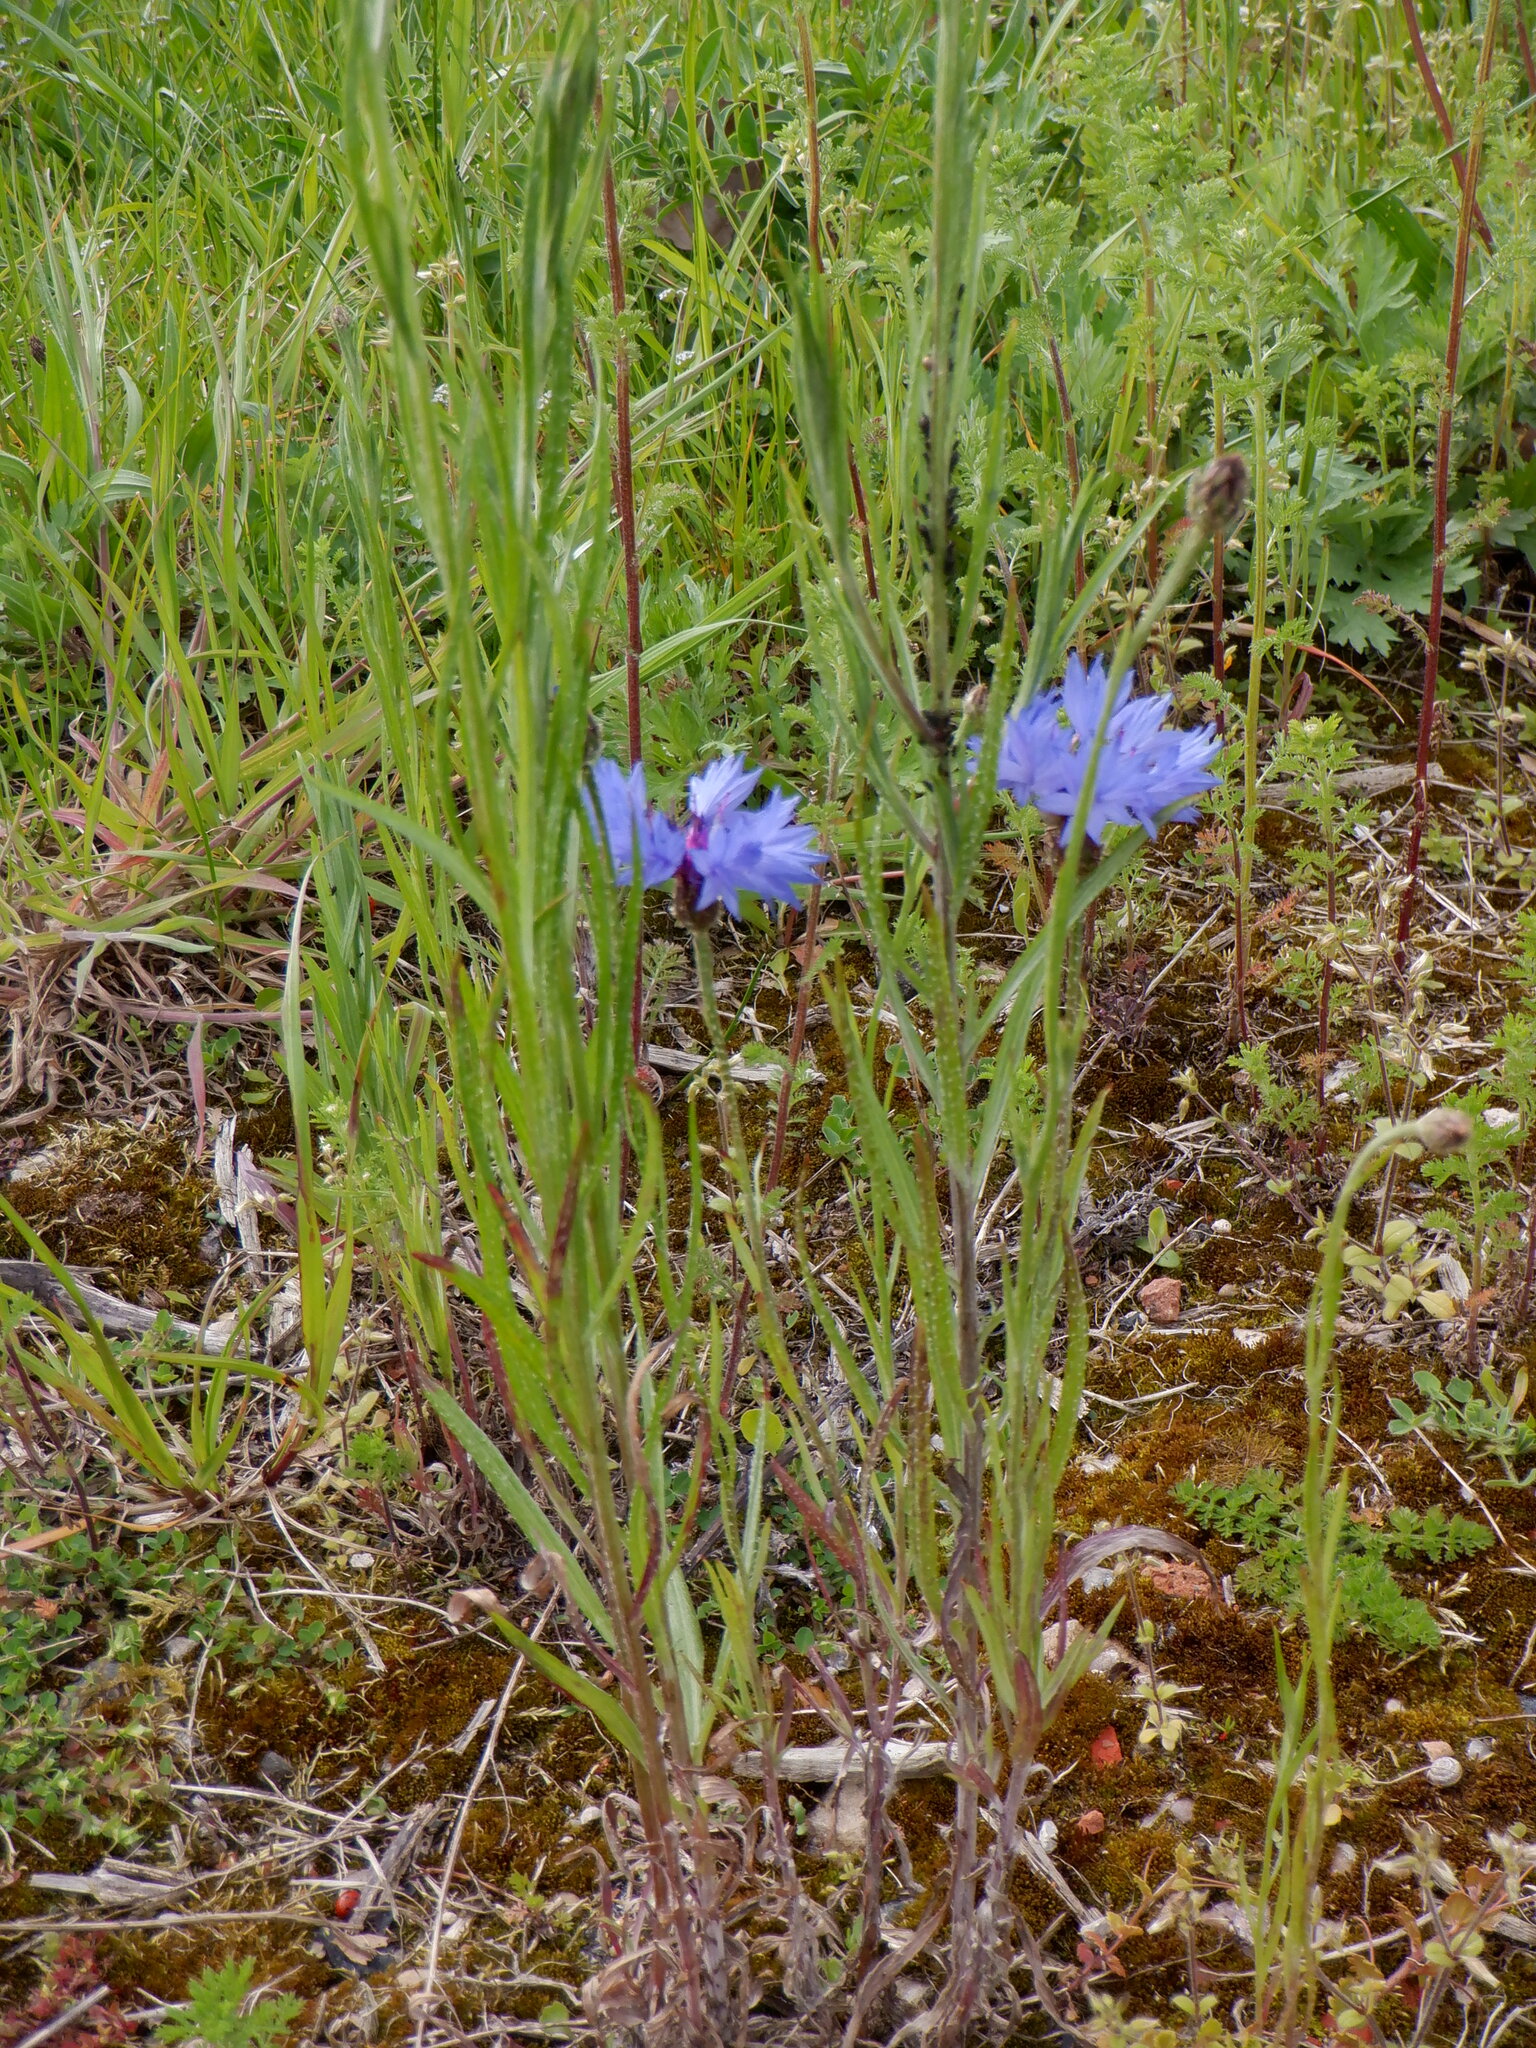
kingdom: Plantae
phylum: Tracheophyta
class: Magnoliopsida
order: Asterales
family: Asteraceae
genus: Centaurea
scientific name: Centaurea cyanus
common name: Cornflower
